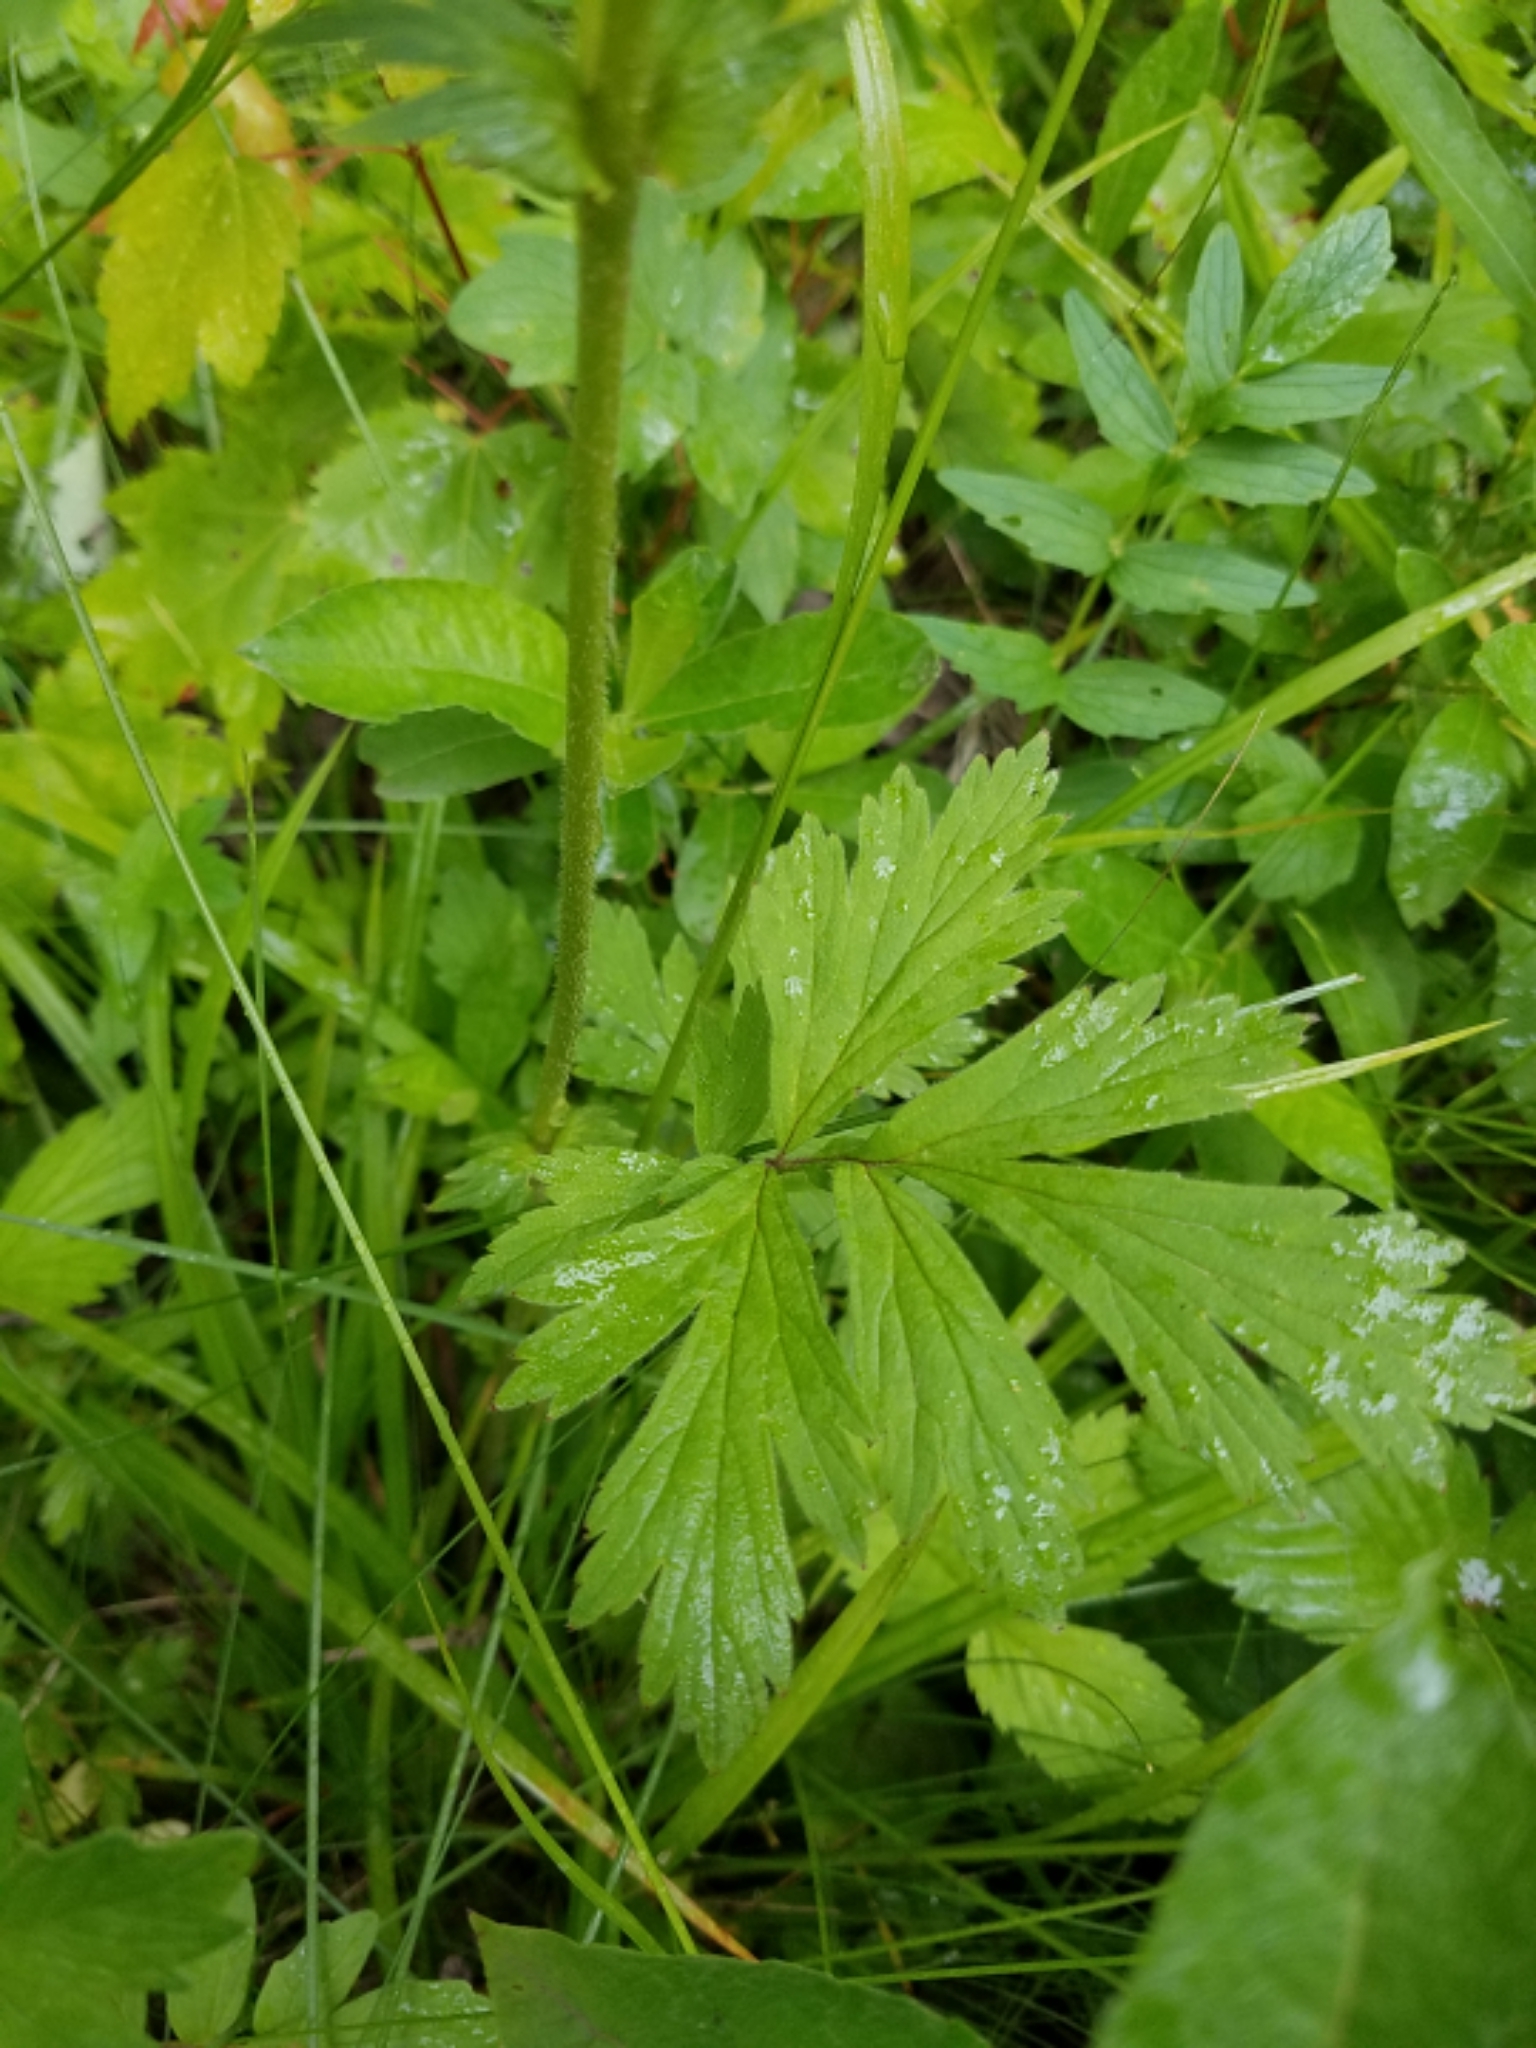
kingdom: Plantae
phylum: Tracheophyta
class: Magnoliopsida
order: Rosales
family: Rosaceae
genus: Geum
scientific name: Geum aleppicum
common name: Yellow avens
